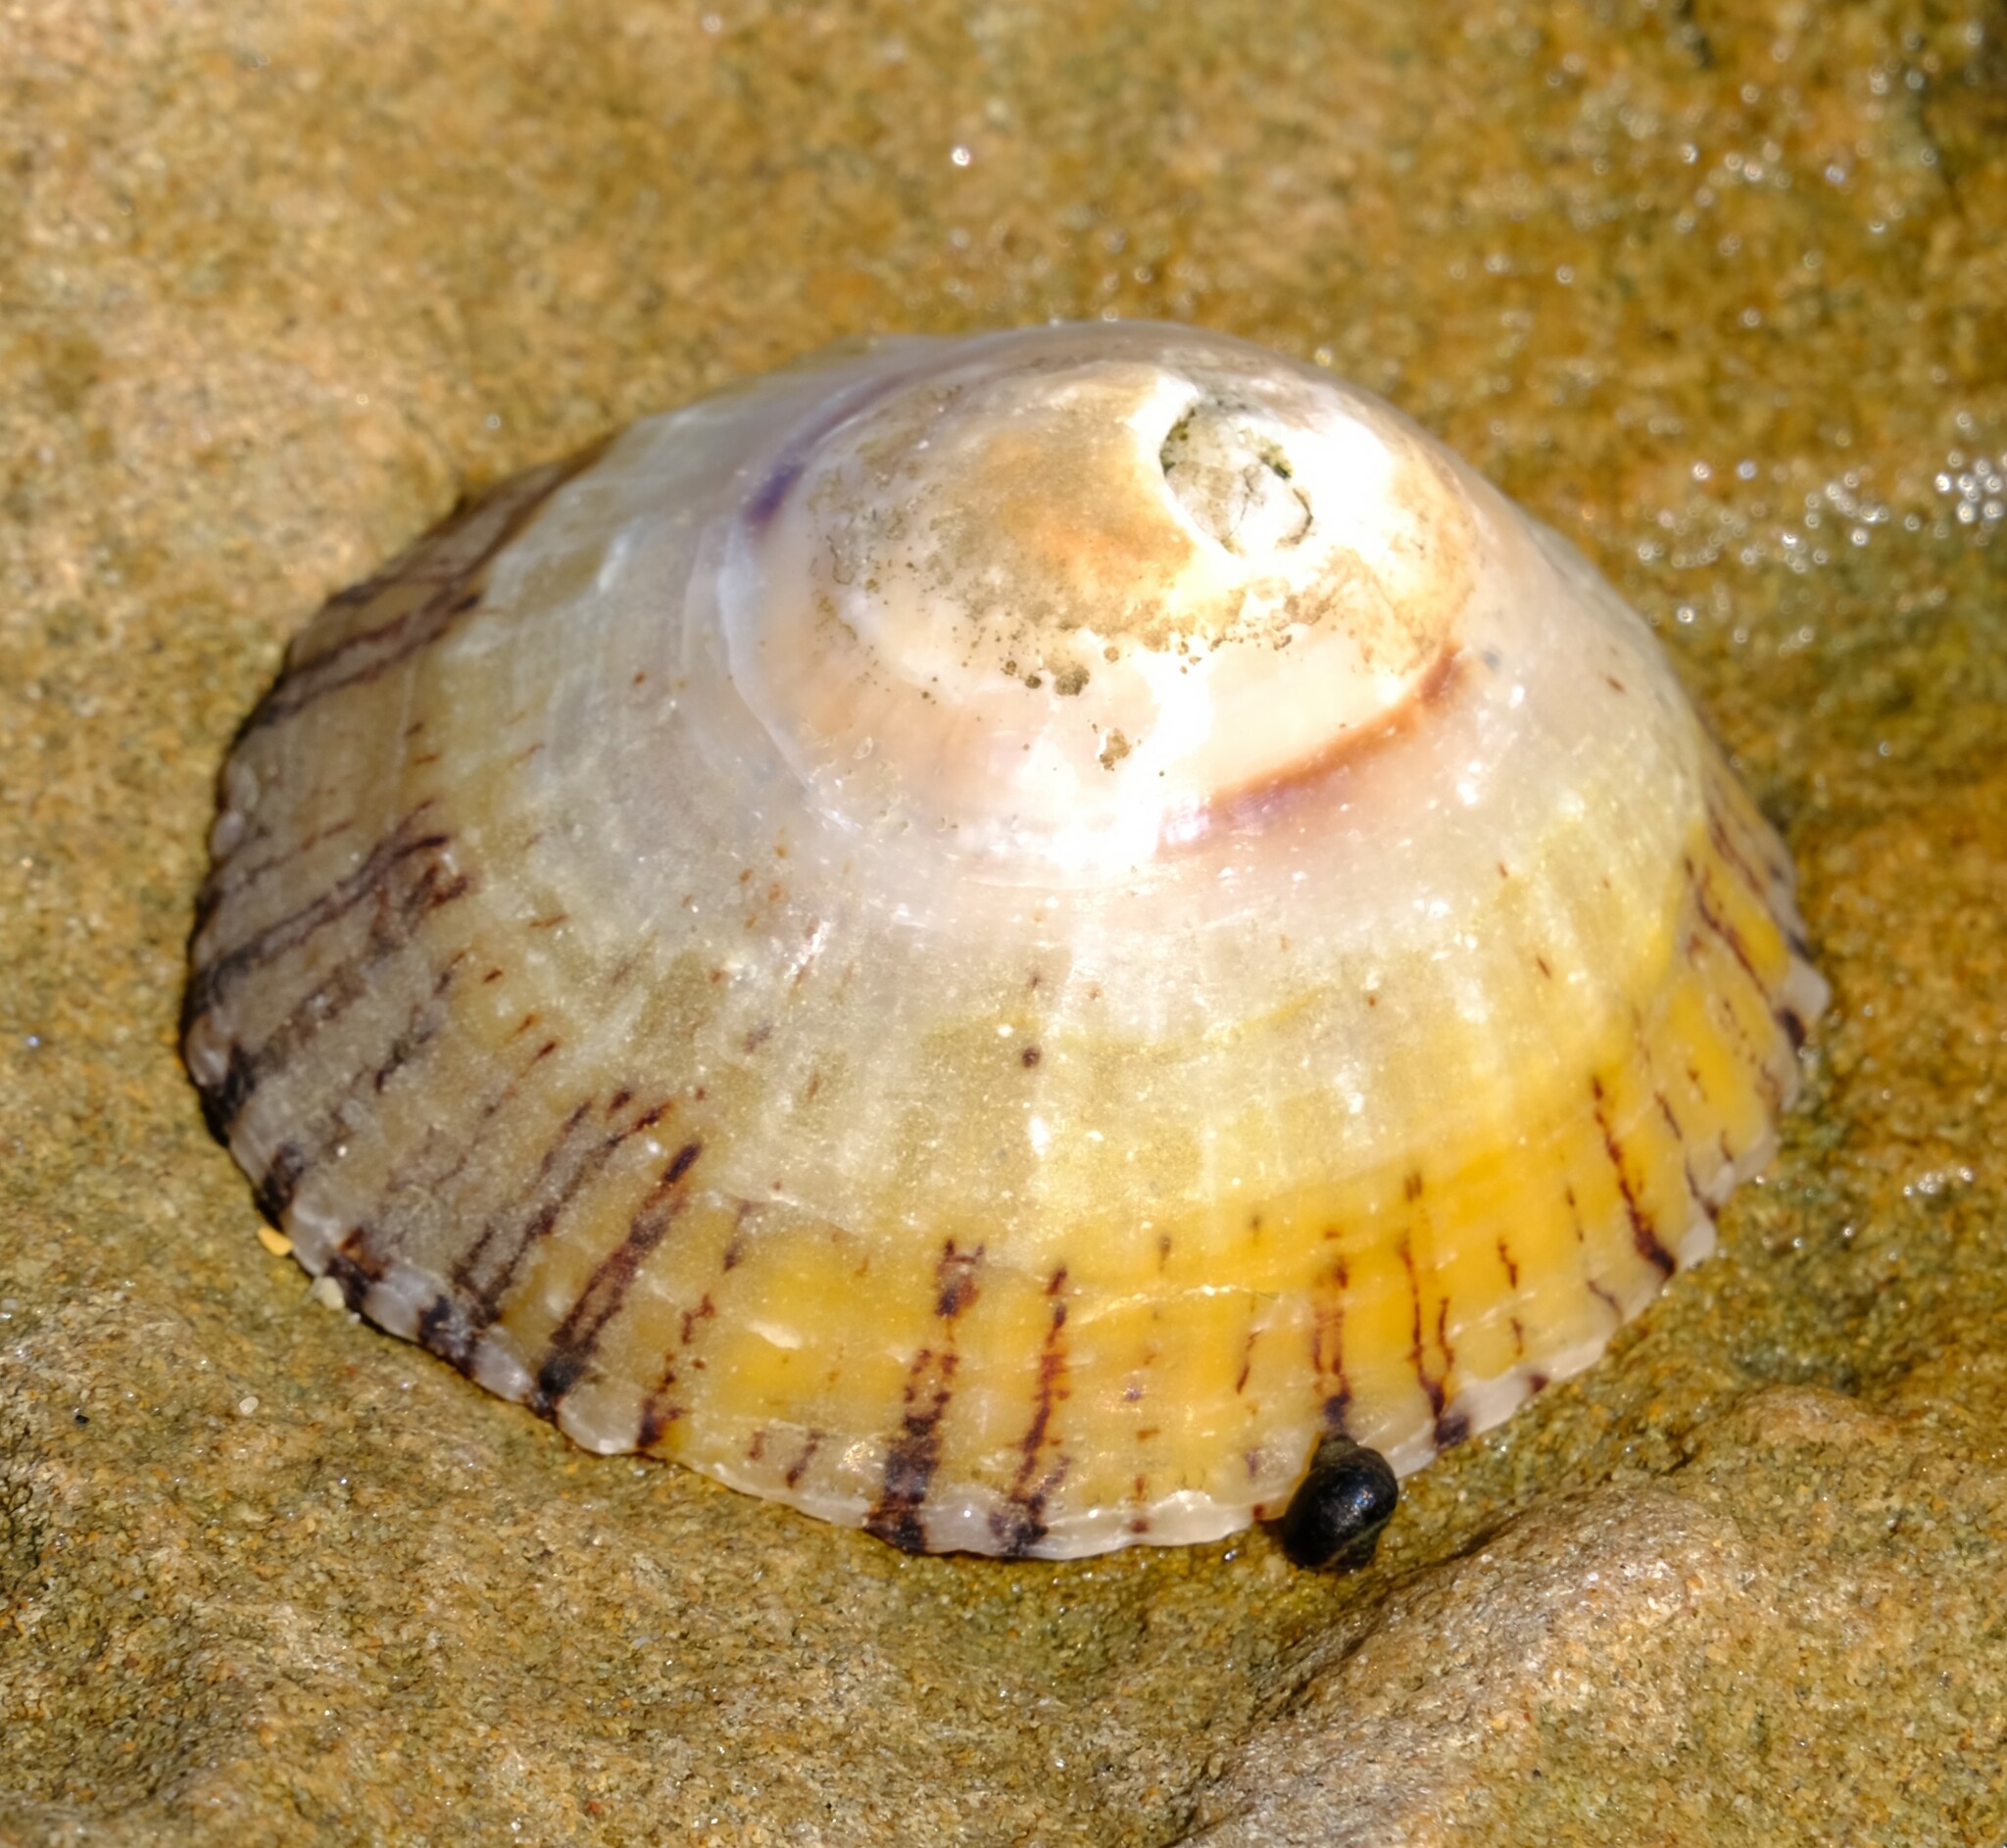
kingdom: Animalia
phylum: Mollusca
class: Gastropoda
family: Nacellidae
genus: Cellana
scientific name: Cellana tramoserica
